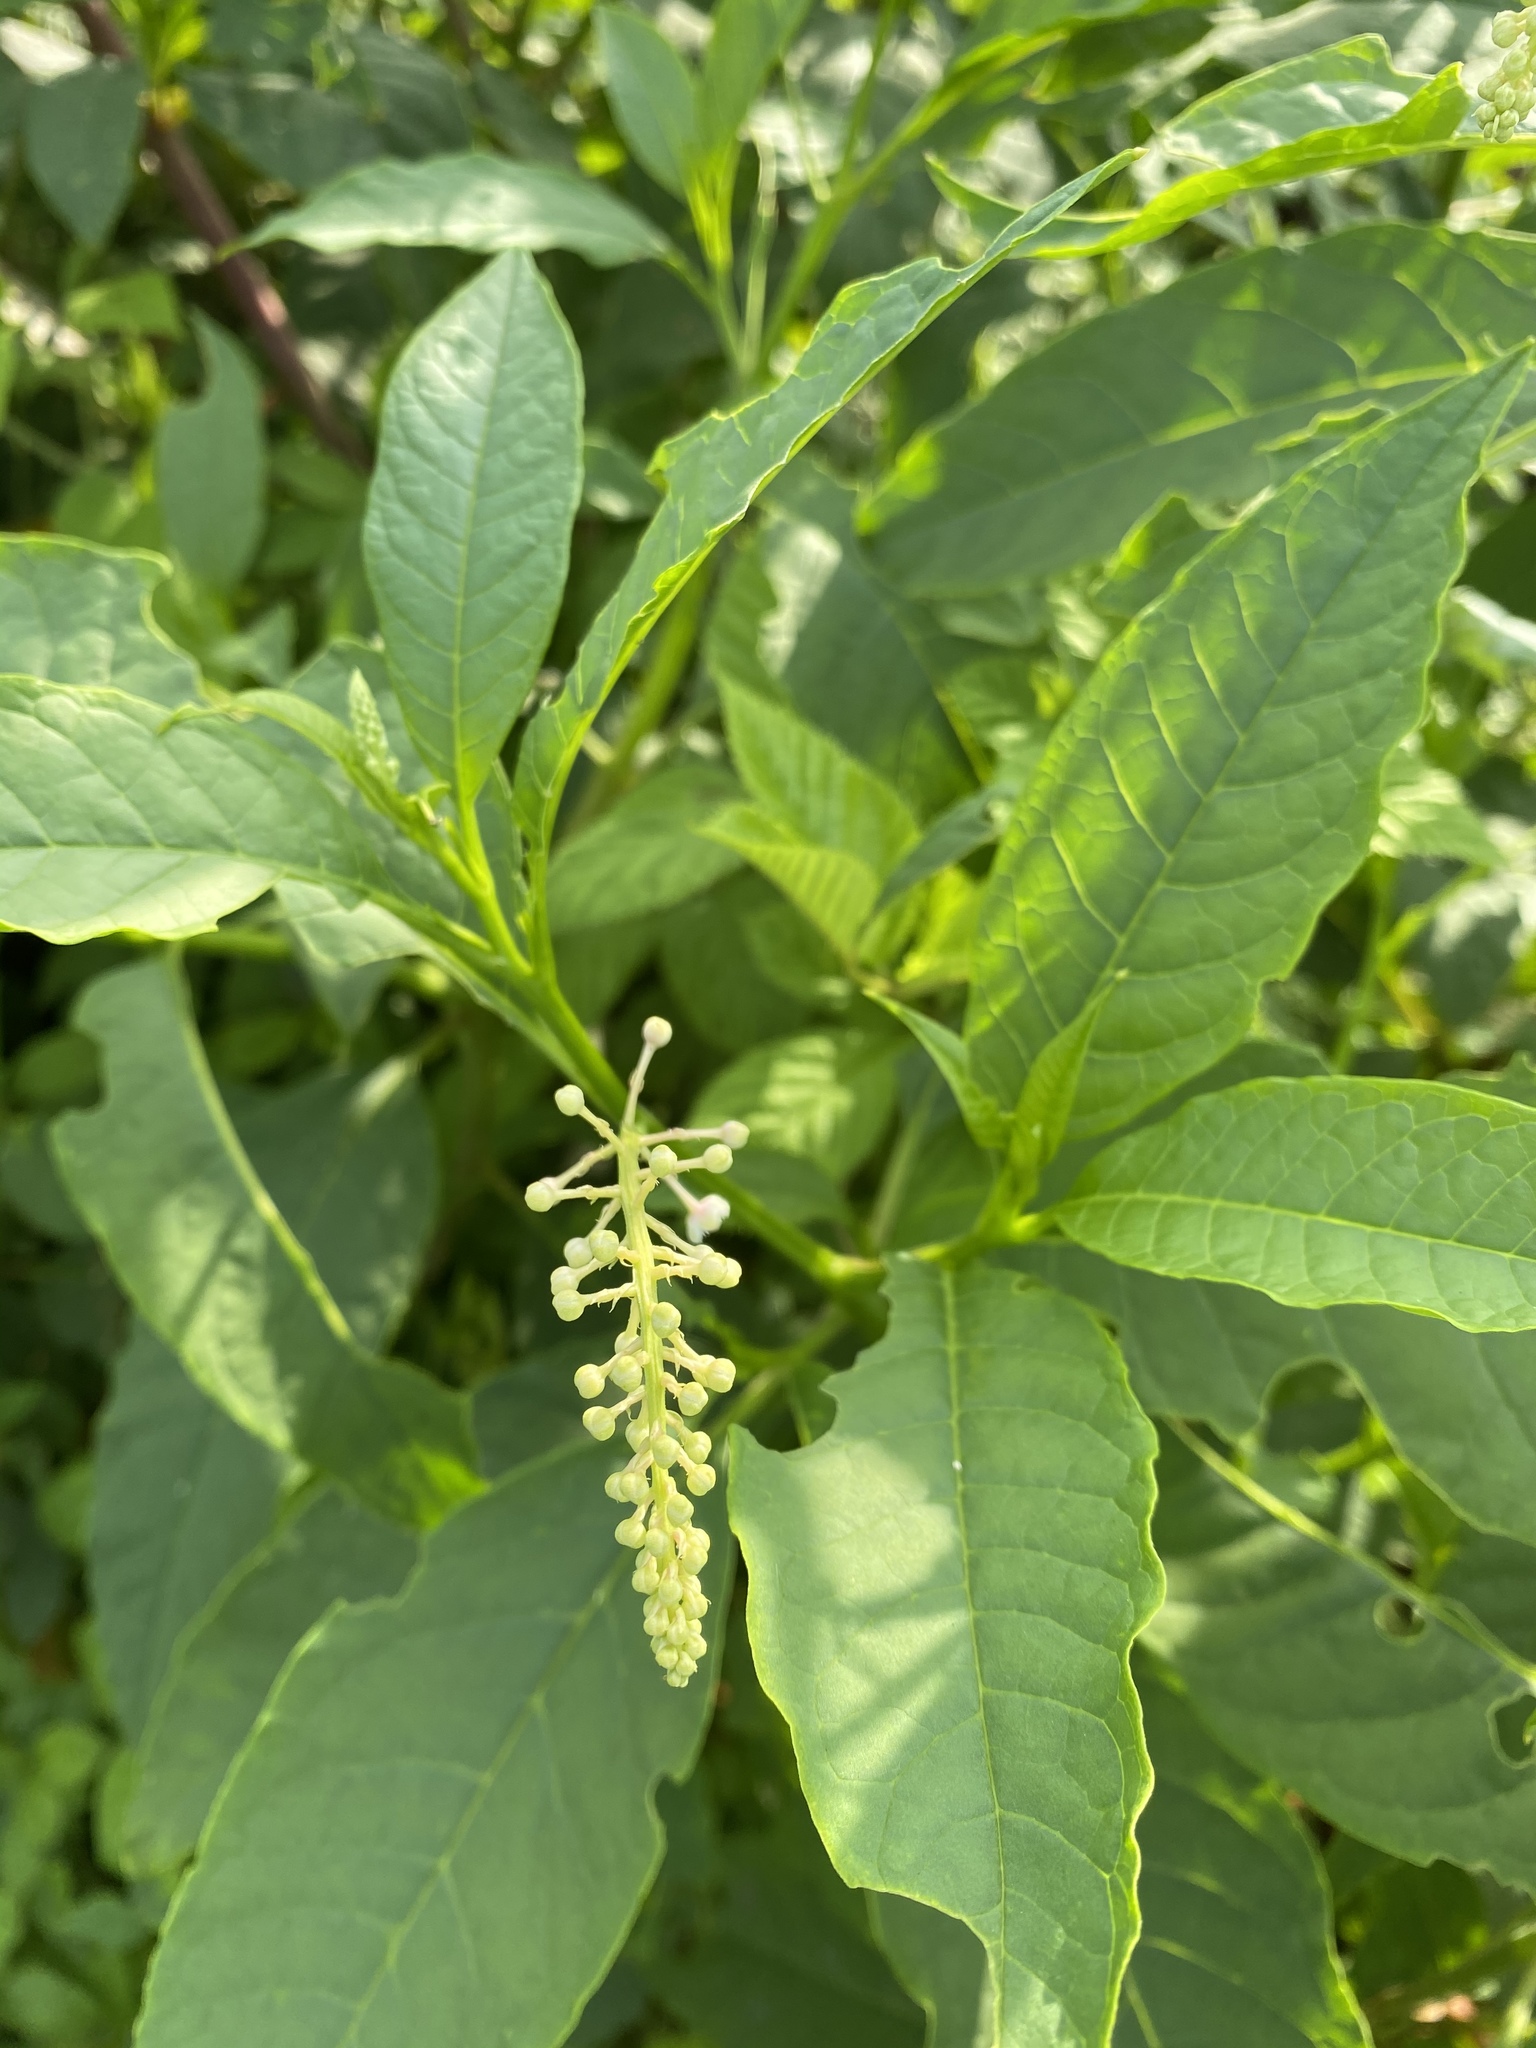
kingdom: Plantae
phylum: Tracheophyta
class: Magnoliopsida
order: Caryophyllales
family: Phytolaccaceae
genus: Phytolacca
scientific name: Phytolacca americana
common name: American pokeweed
